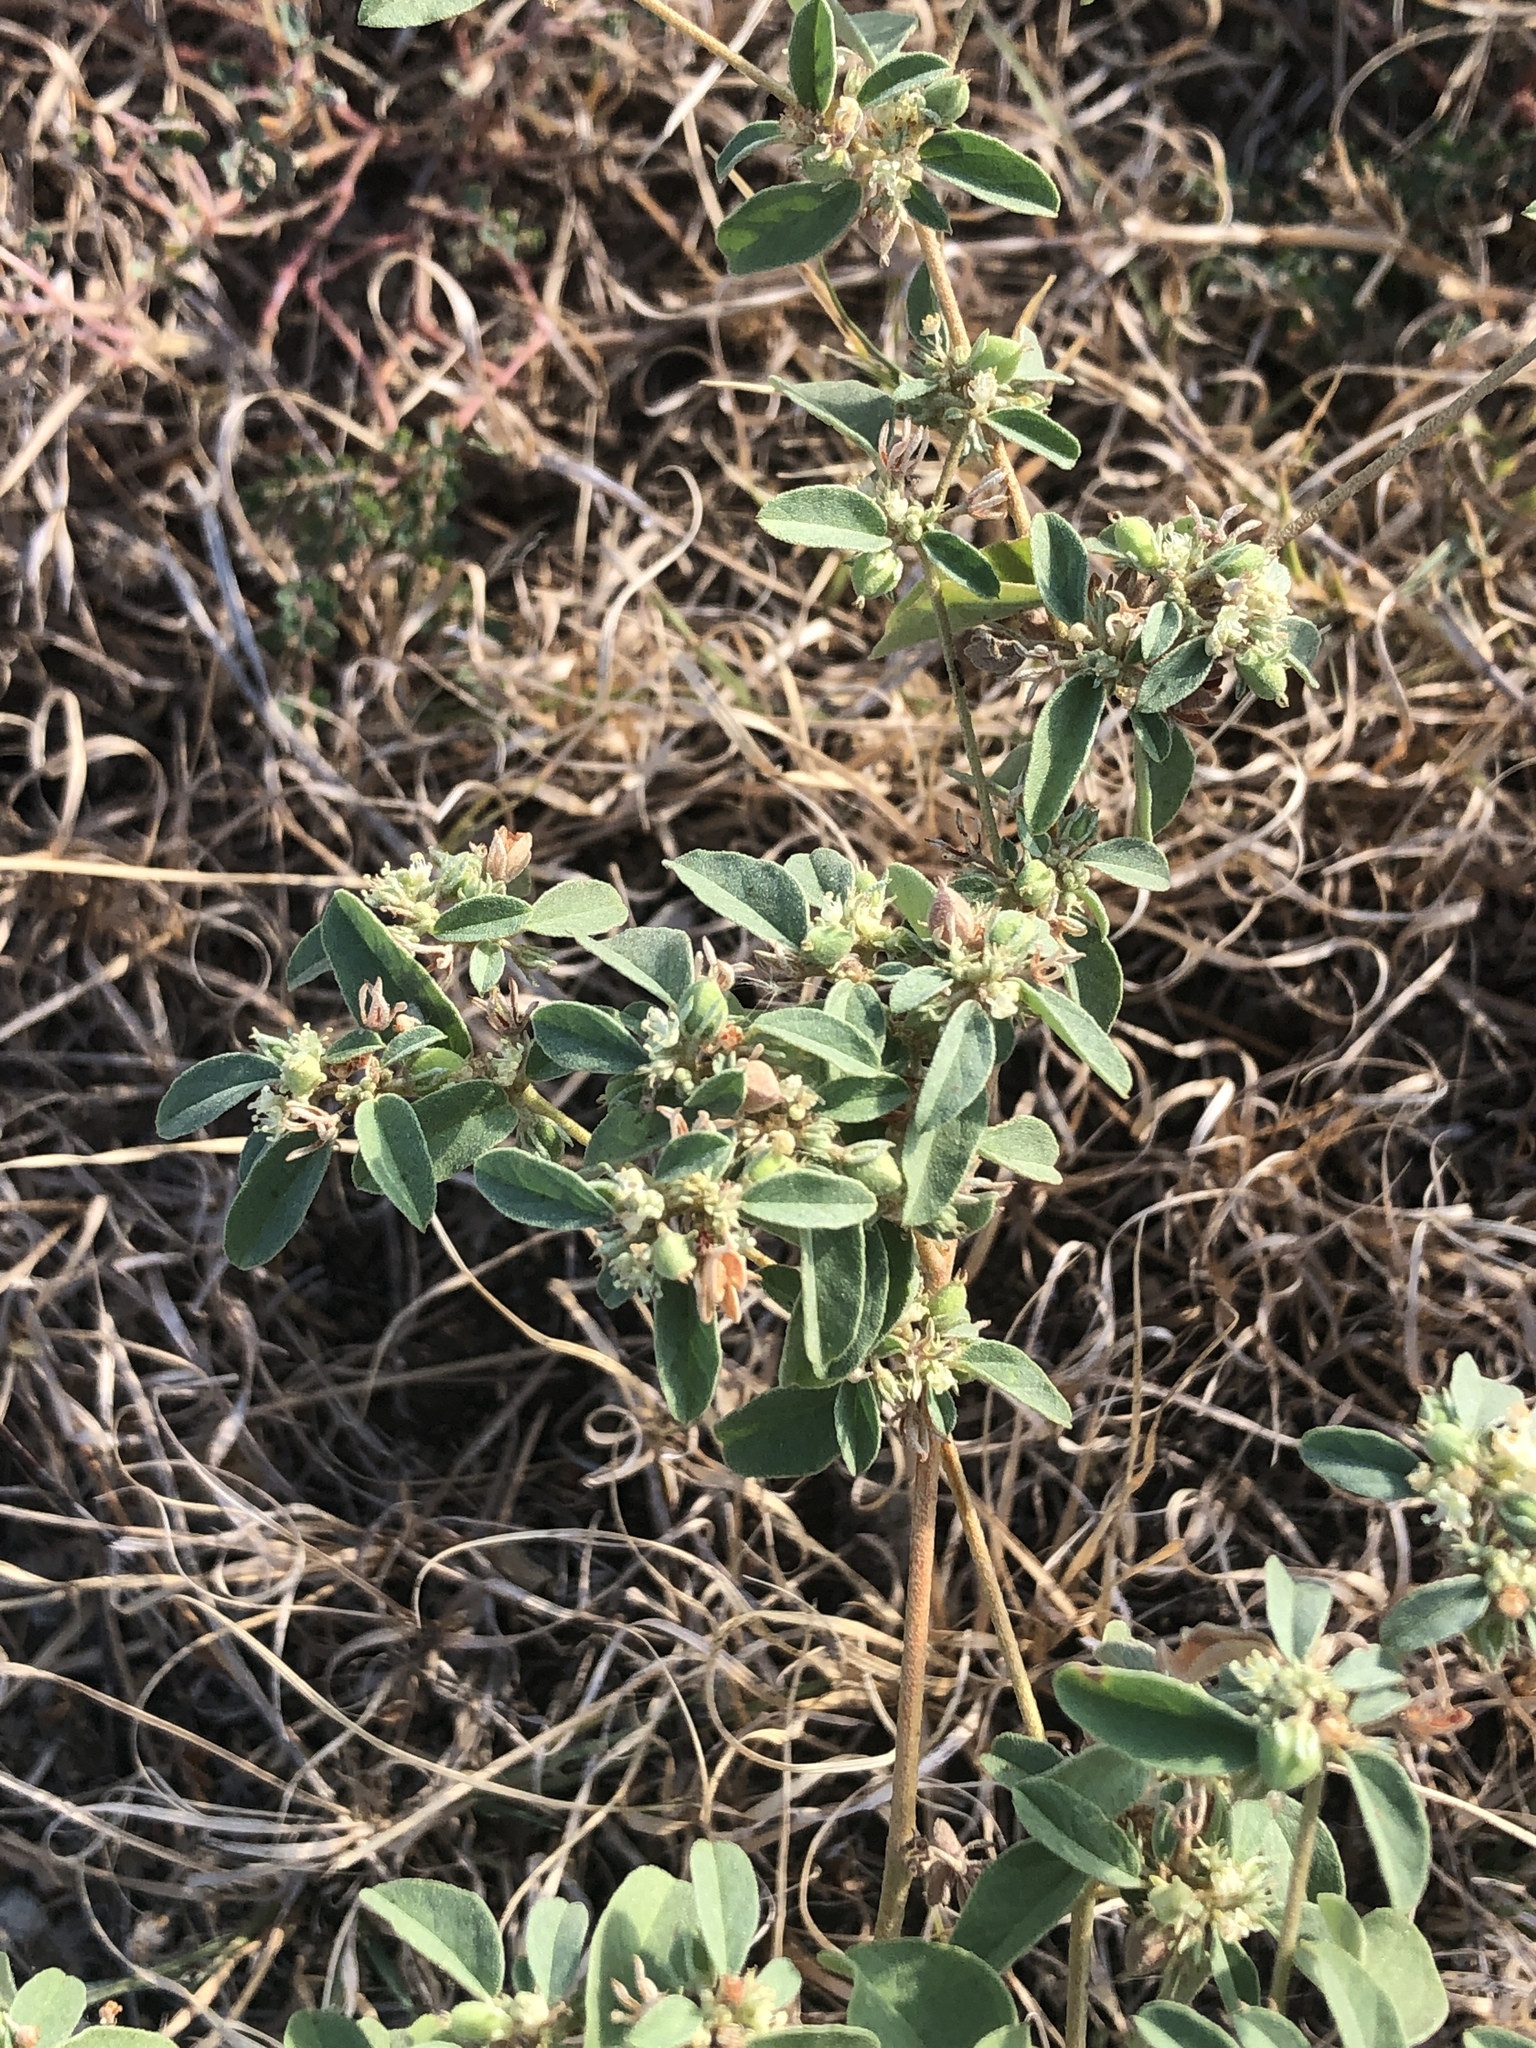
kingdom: Plantae
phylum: Tracheophyta
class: Magnoliopsida
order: Malpighiales
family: Euphorbiaceae
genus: Croton
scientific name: Croton monanthogynus
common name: One-seed croton
